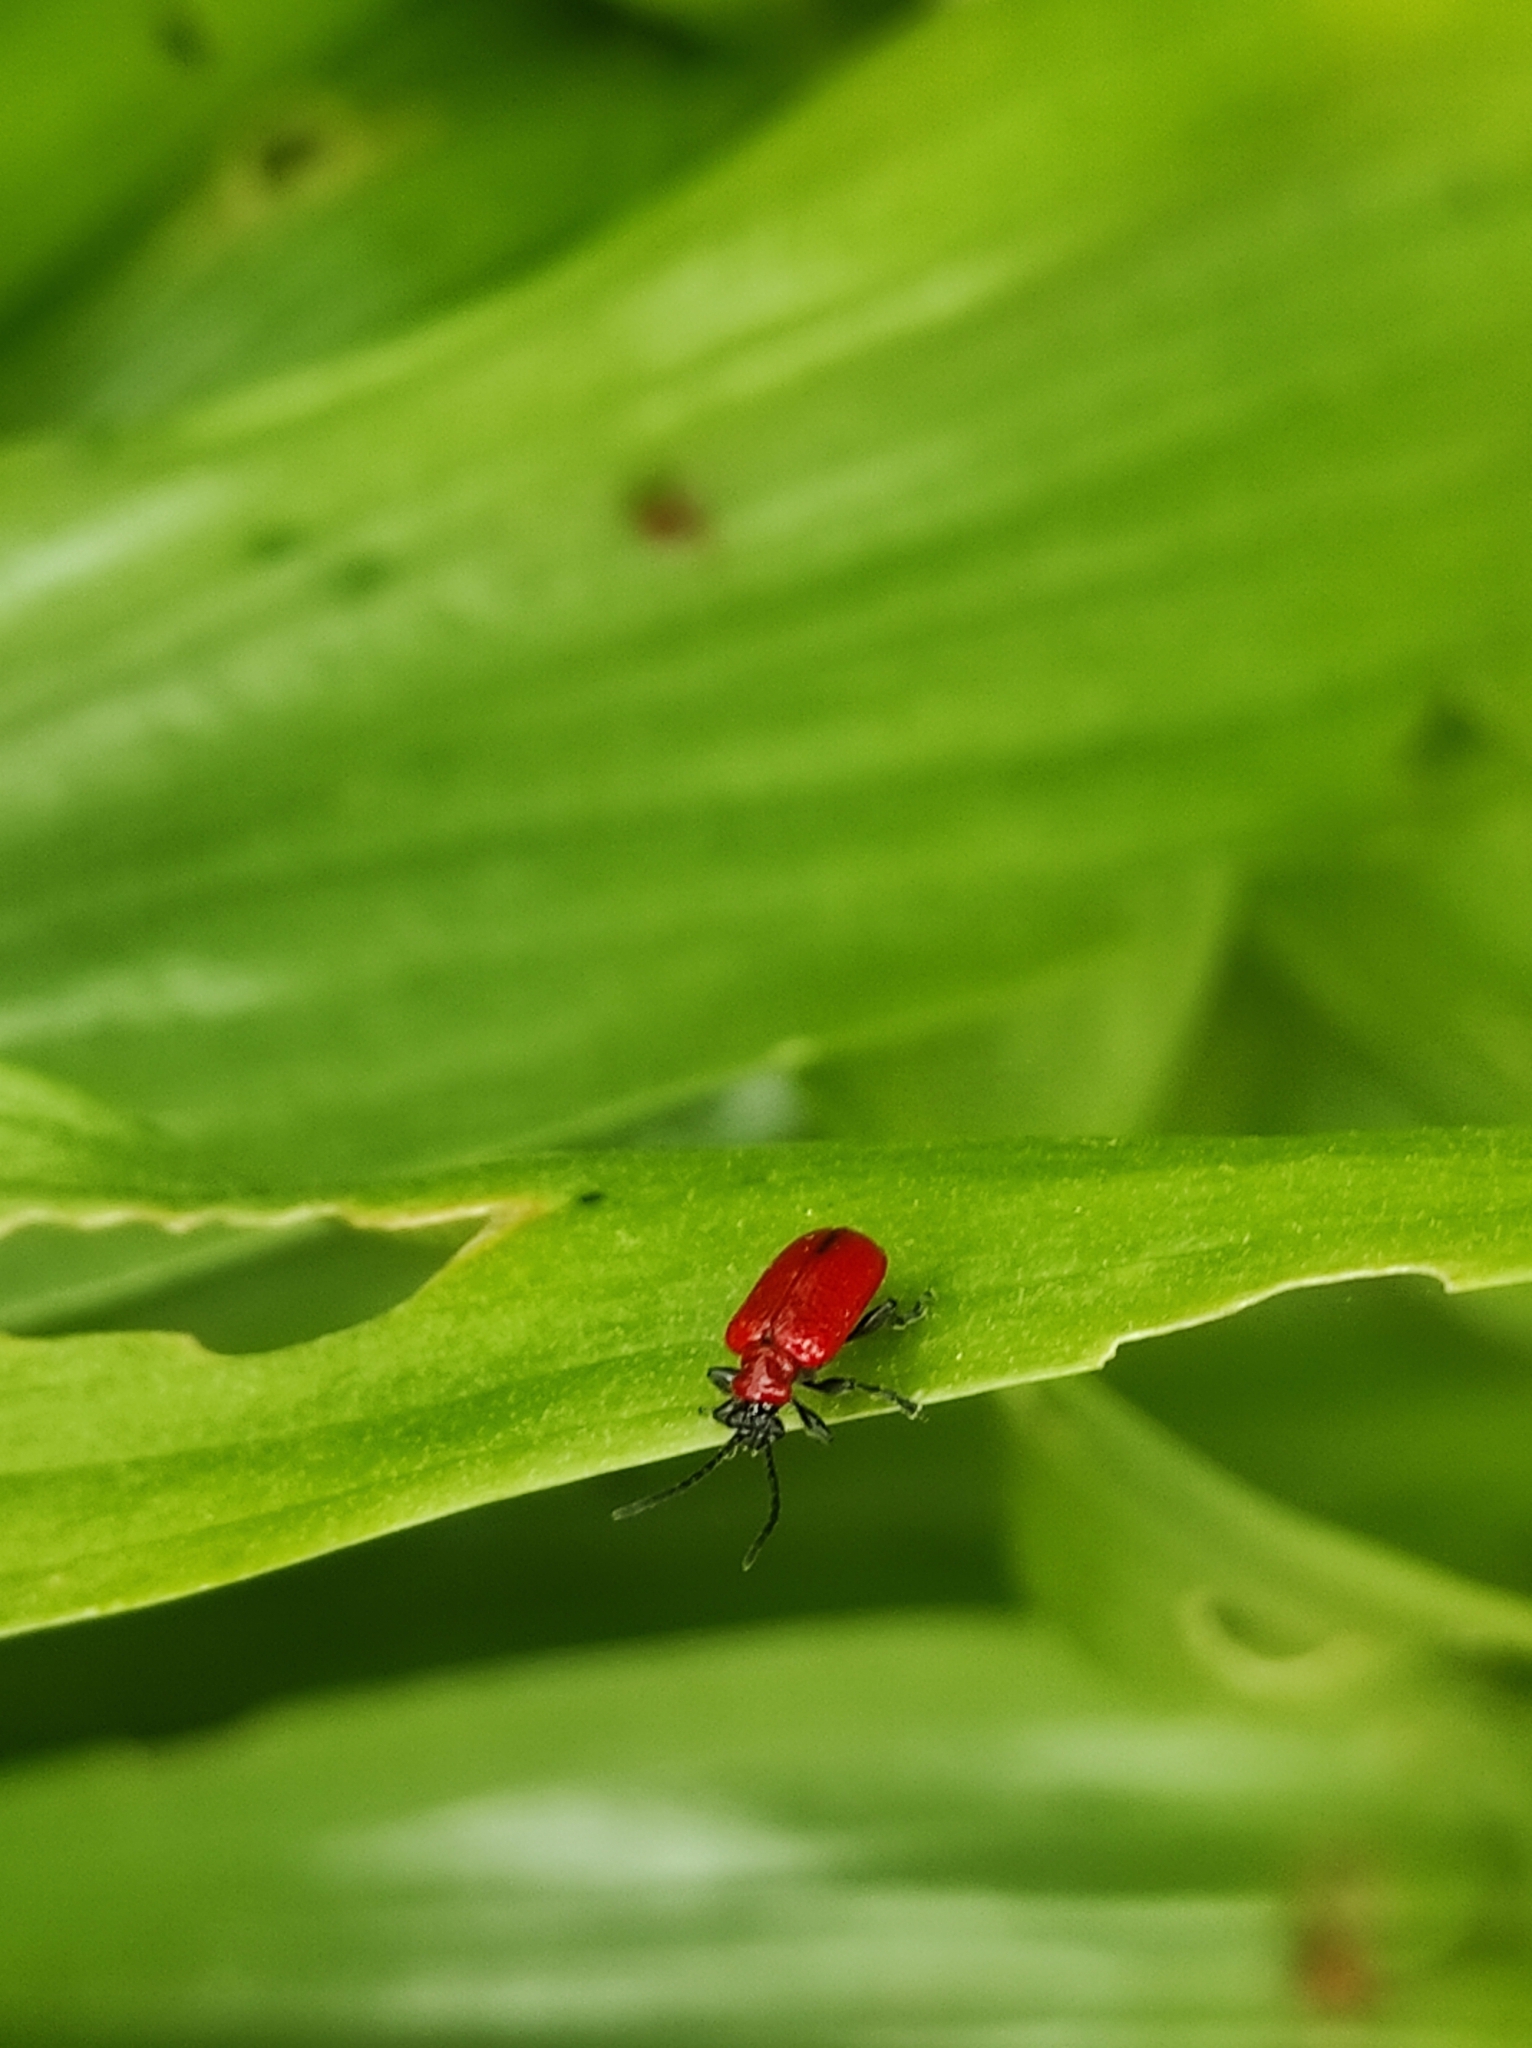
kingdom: Animalia
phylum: Arthropoda
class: Insecta
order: Coleoptera
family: Chrysomelidae
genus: Lilioceris
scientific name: Lilioceris lilii
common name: Lily beetle
